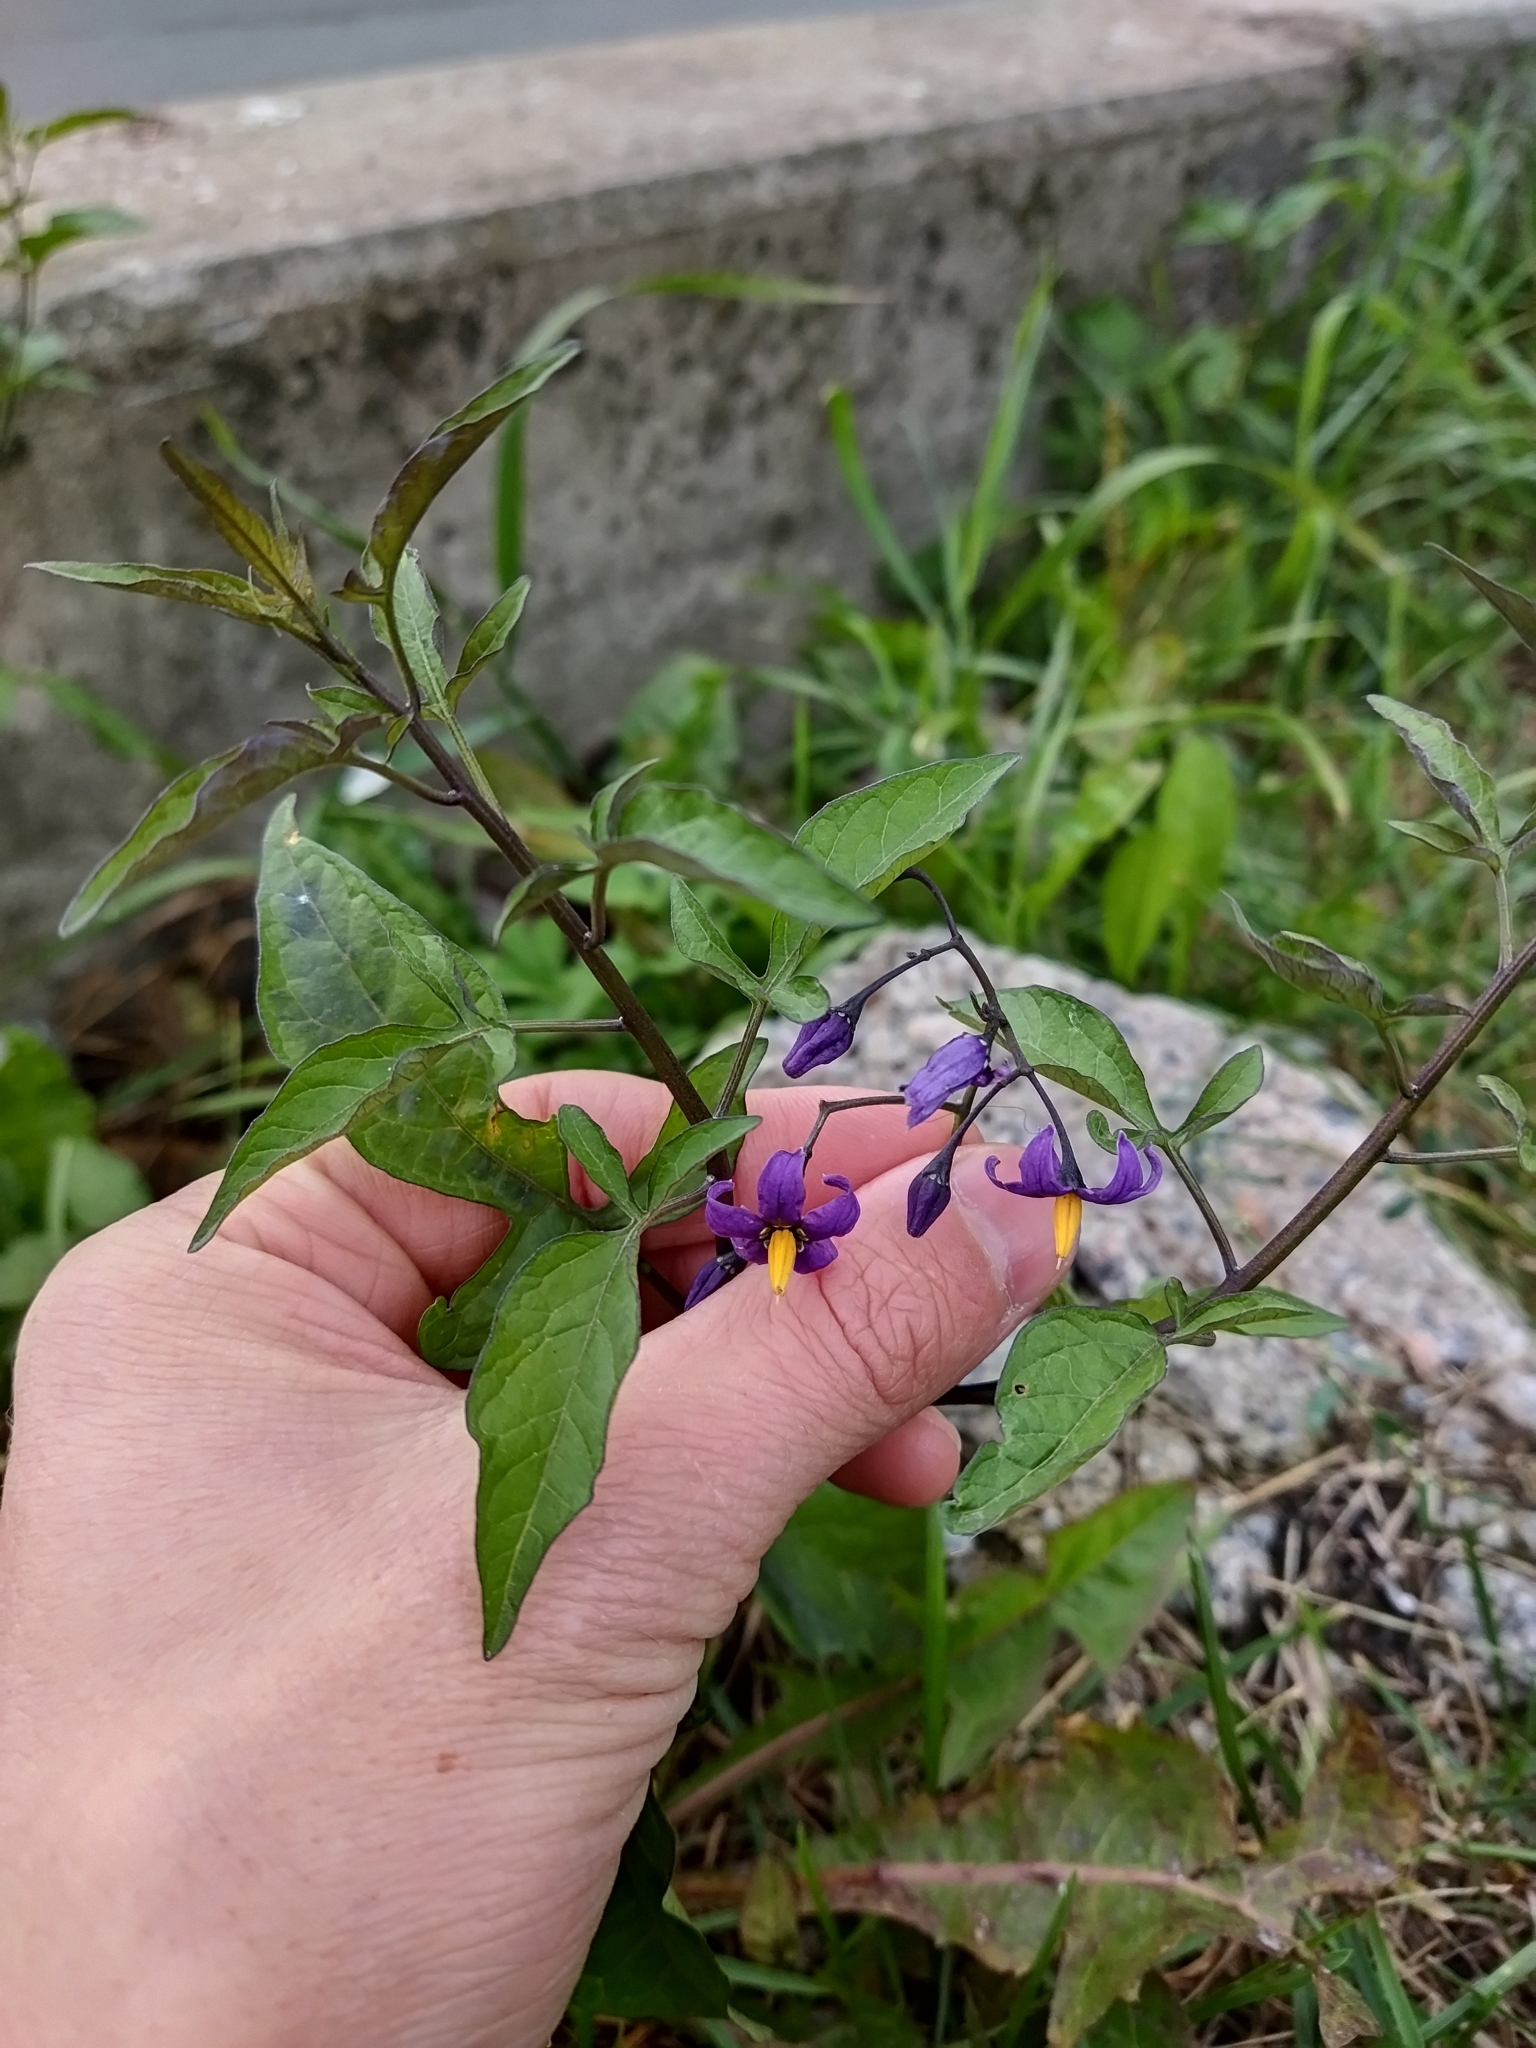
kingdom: Plantae
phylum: Tracheophyta
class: Magnoliopsida
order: Solanales
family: Solanaceae
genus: Solanum
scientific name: Solanum dulcamara
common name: Climbing nightshade
